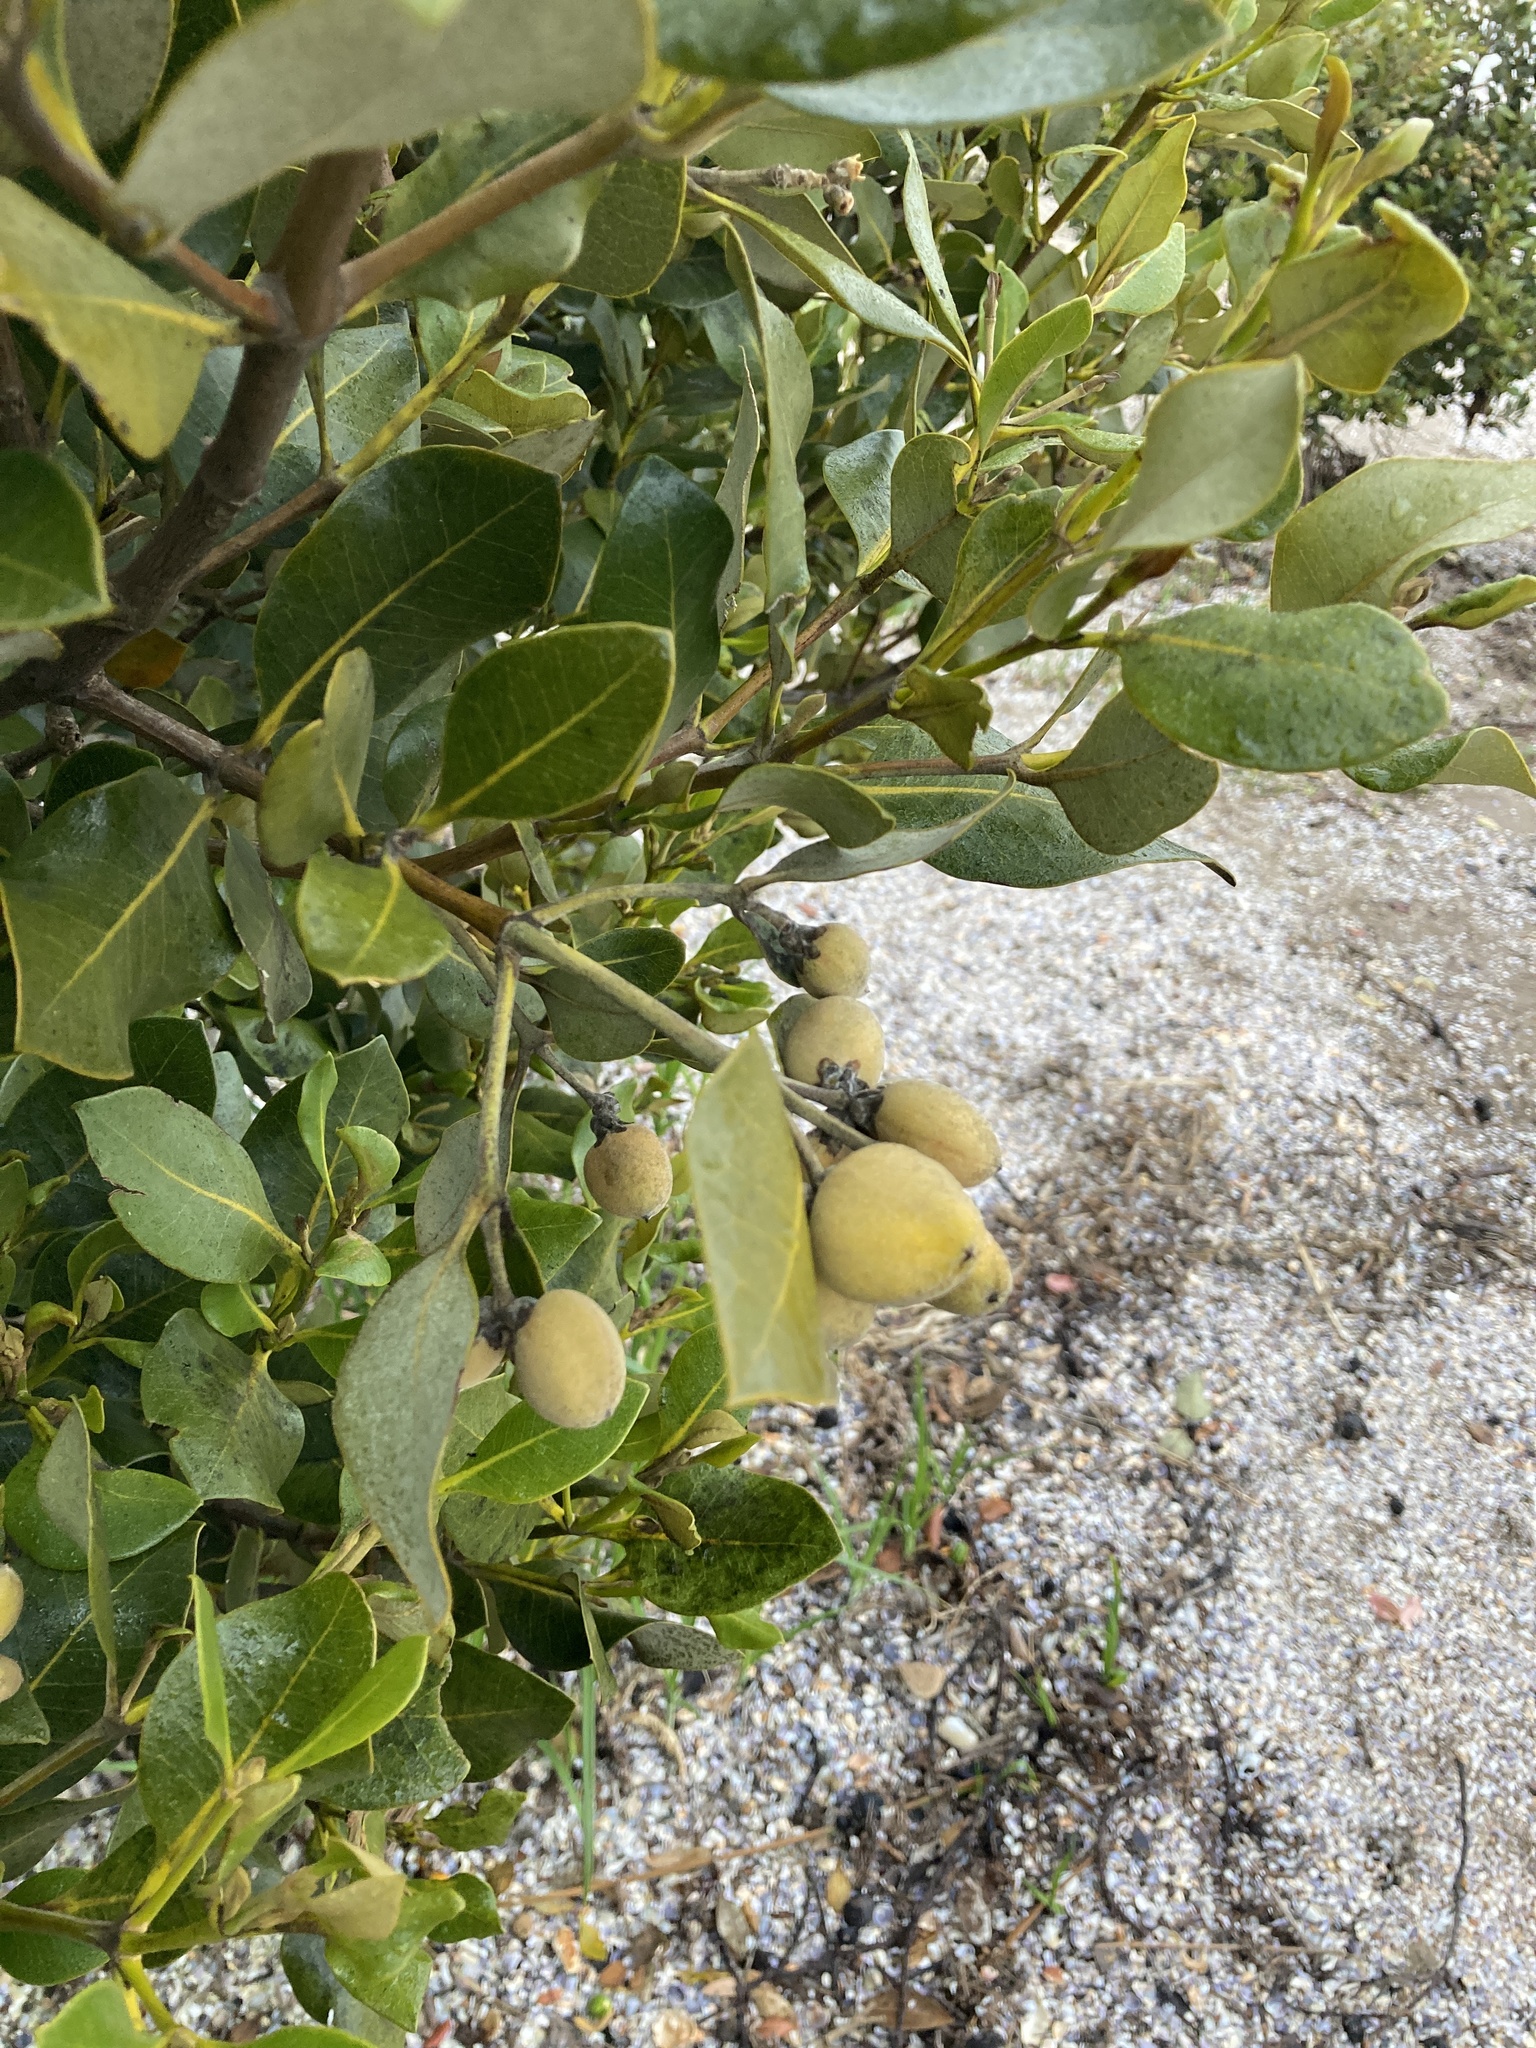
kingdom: Plantae
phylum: Tracheophyta
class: Magnoliopsida
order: Lamiales
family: Acanthaceae
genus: Avicennia
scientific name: Avicennia marina
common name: Gray mangrove
